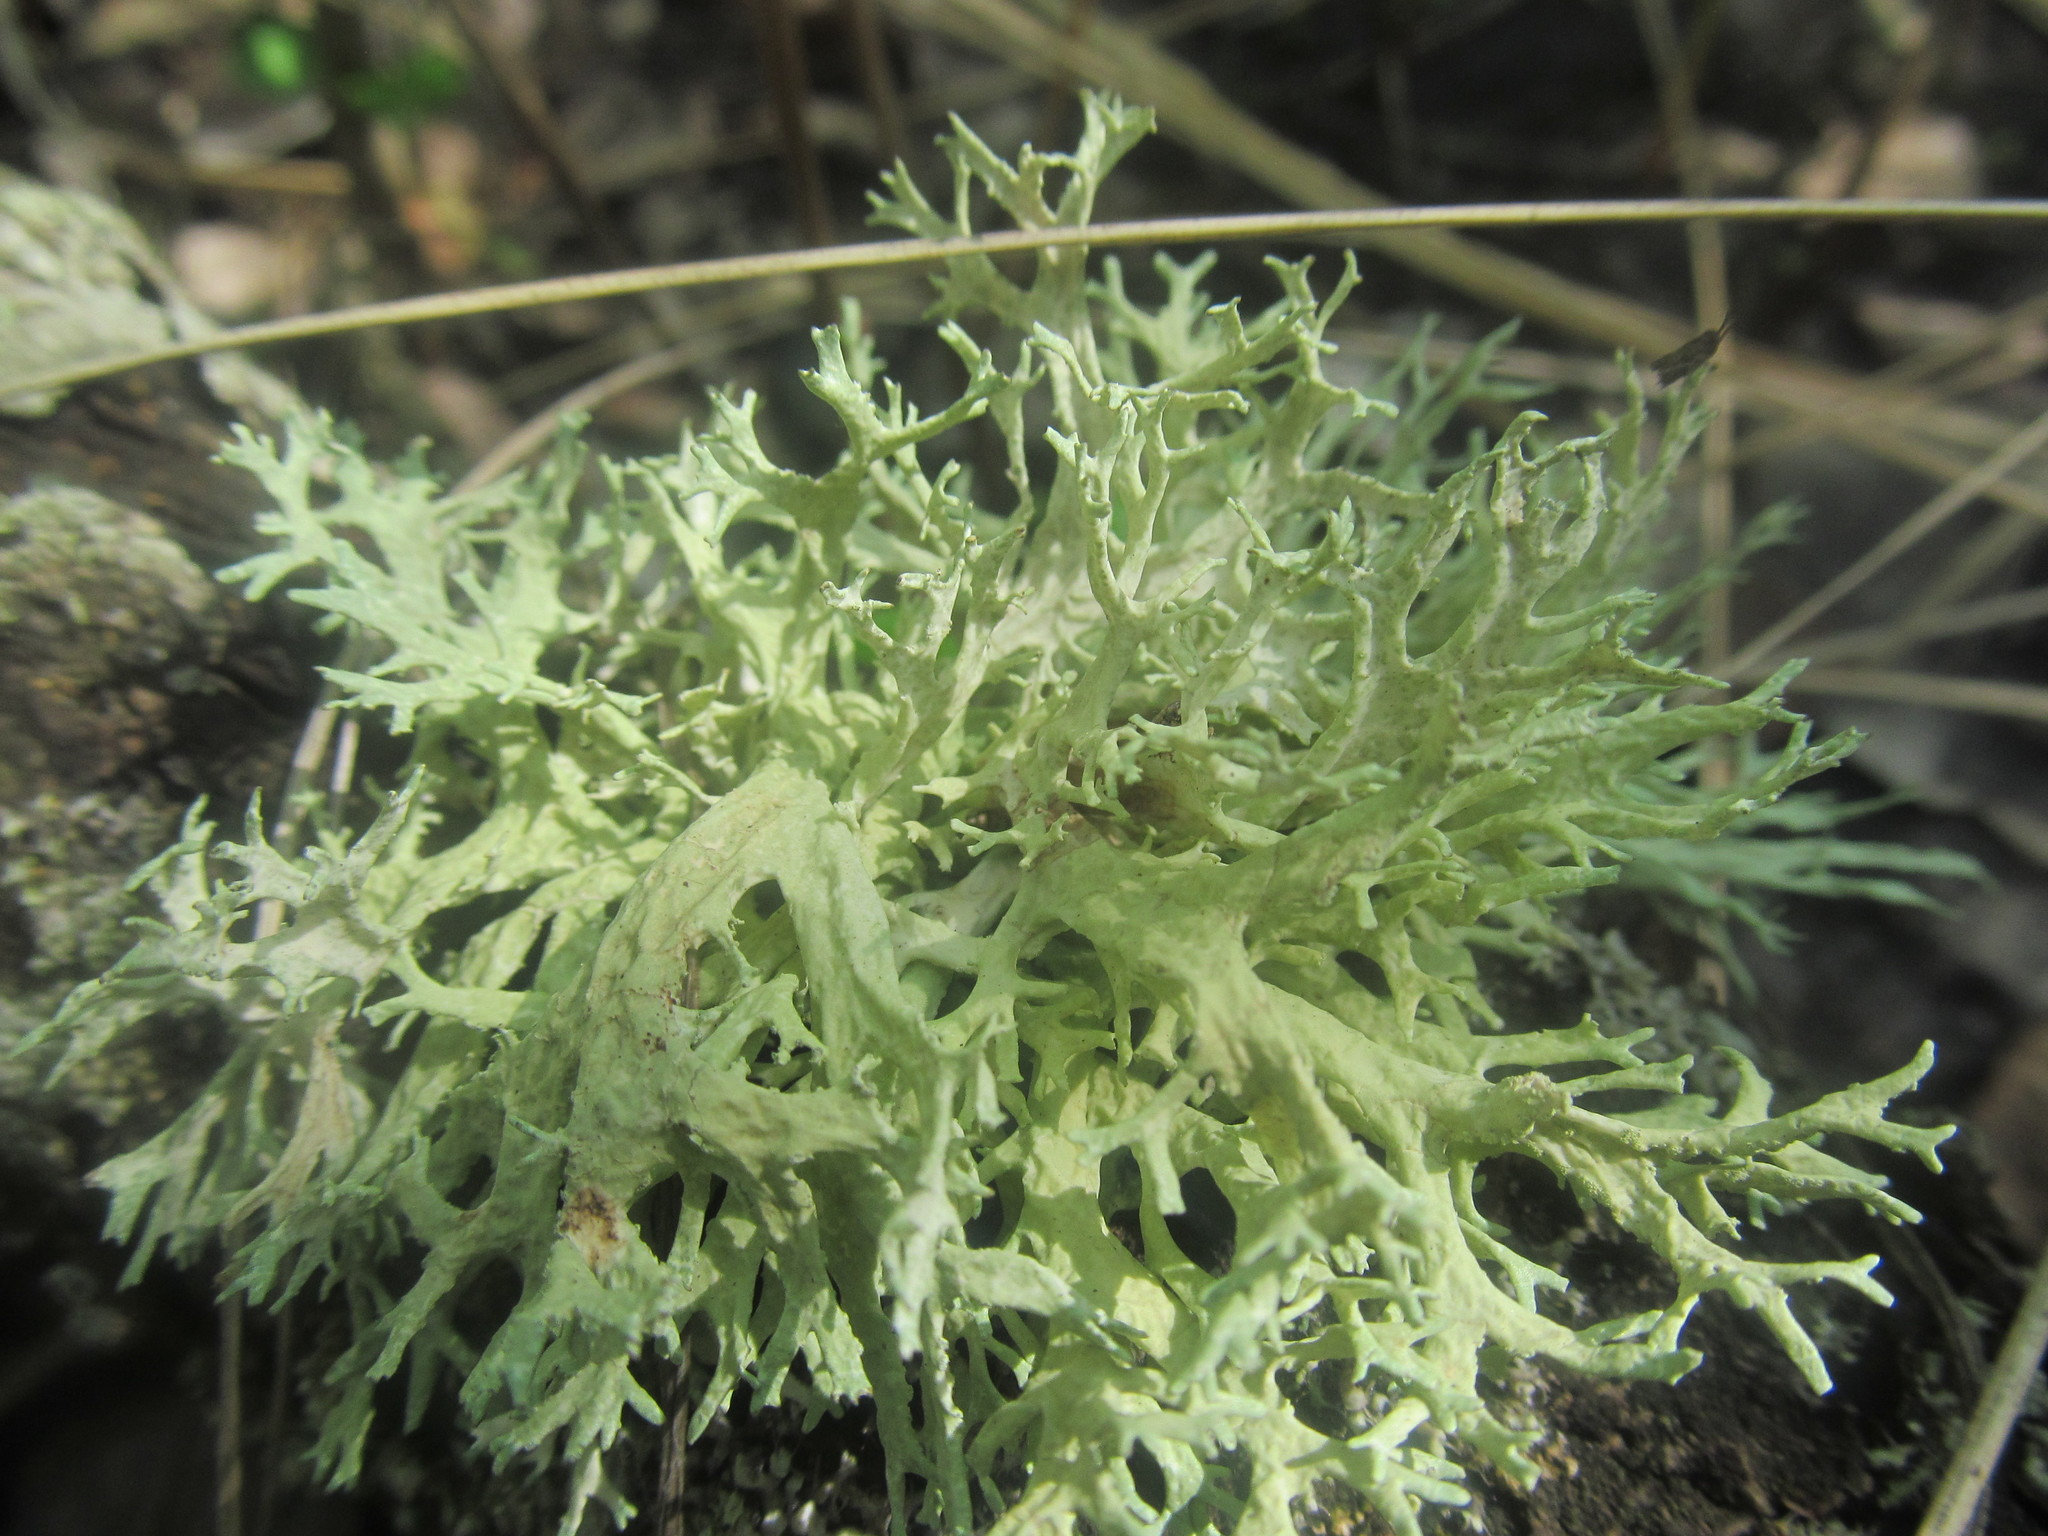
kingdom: Fungi
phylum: Ascomycota
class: Lecanoromycetes
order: Lecanorales
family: Parmeliaceae
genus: Evernia
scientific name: Evernia prunastri
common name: Oak moss
